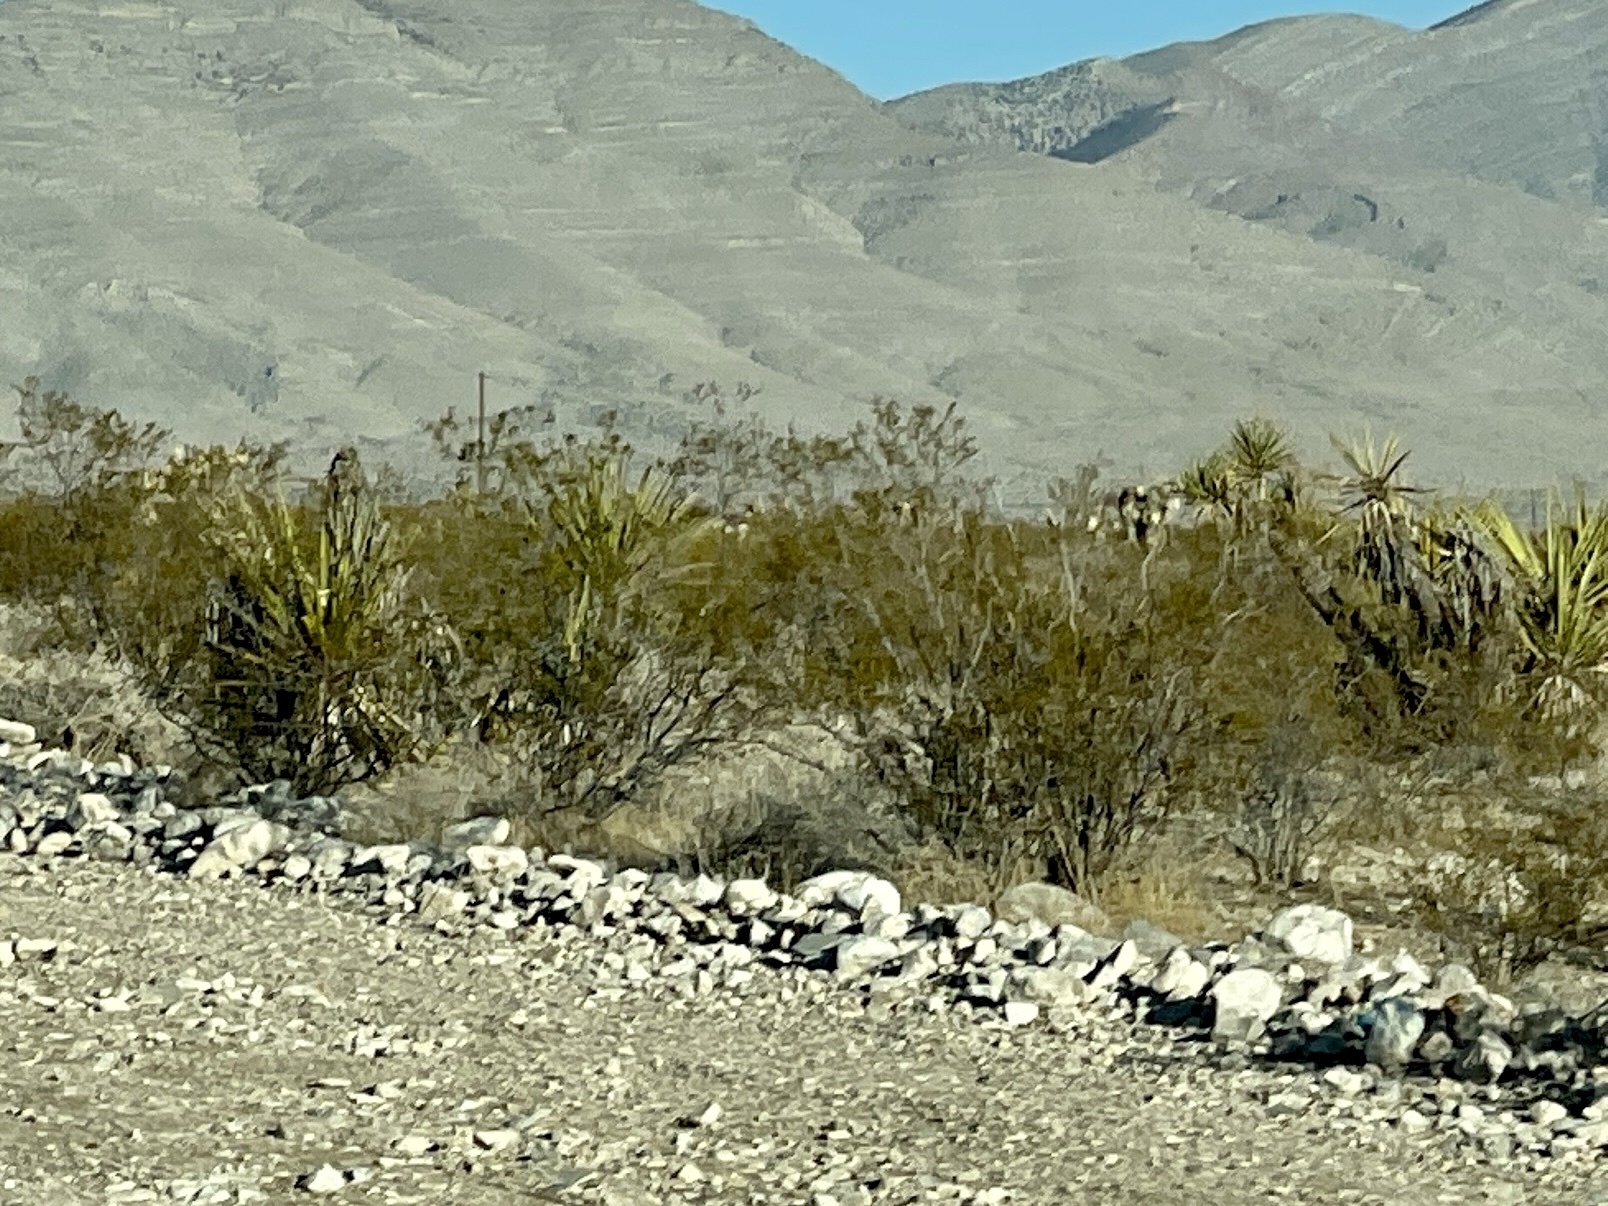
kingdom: Plantae
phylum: Tracheophyta
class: Magnoliopsida
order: Zygophyllales
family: Zygophyllaceae
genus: Larrea
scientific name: Larrea tridentata
